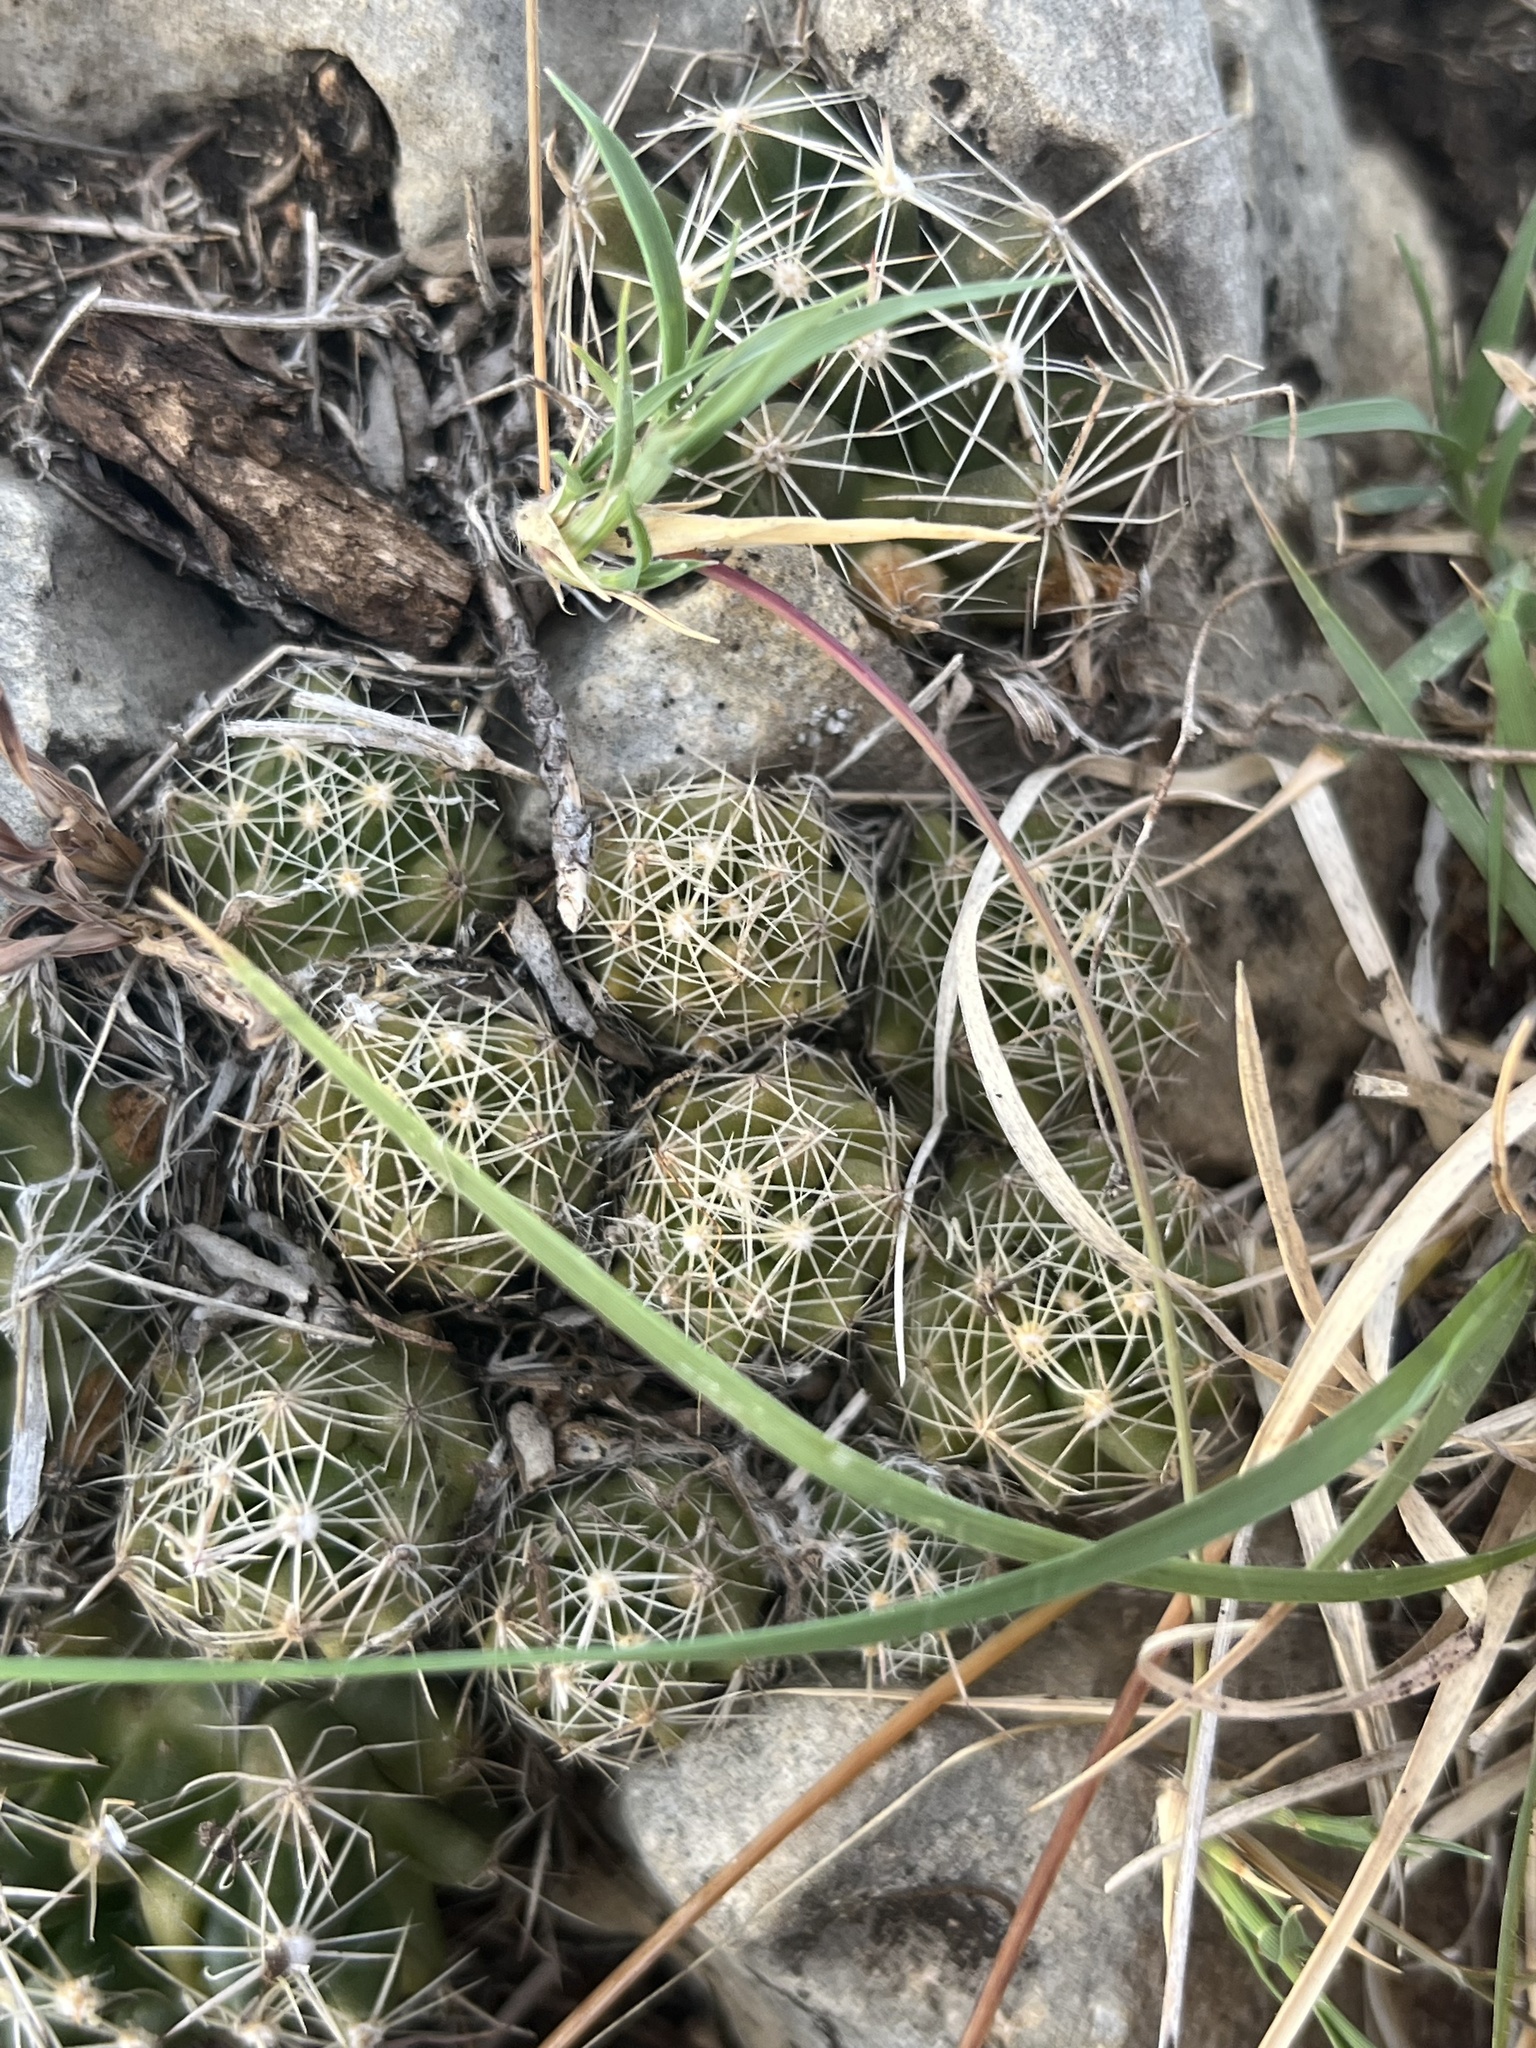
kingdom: Plantae
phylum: Tracheophyta
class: Magnoliopsida
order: Caryophyllales
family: Cactaceae
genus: Pelecyphora
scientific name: Pelecyphora missouriensis
